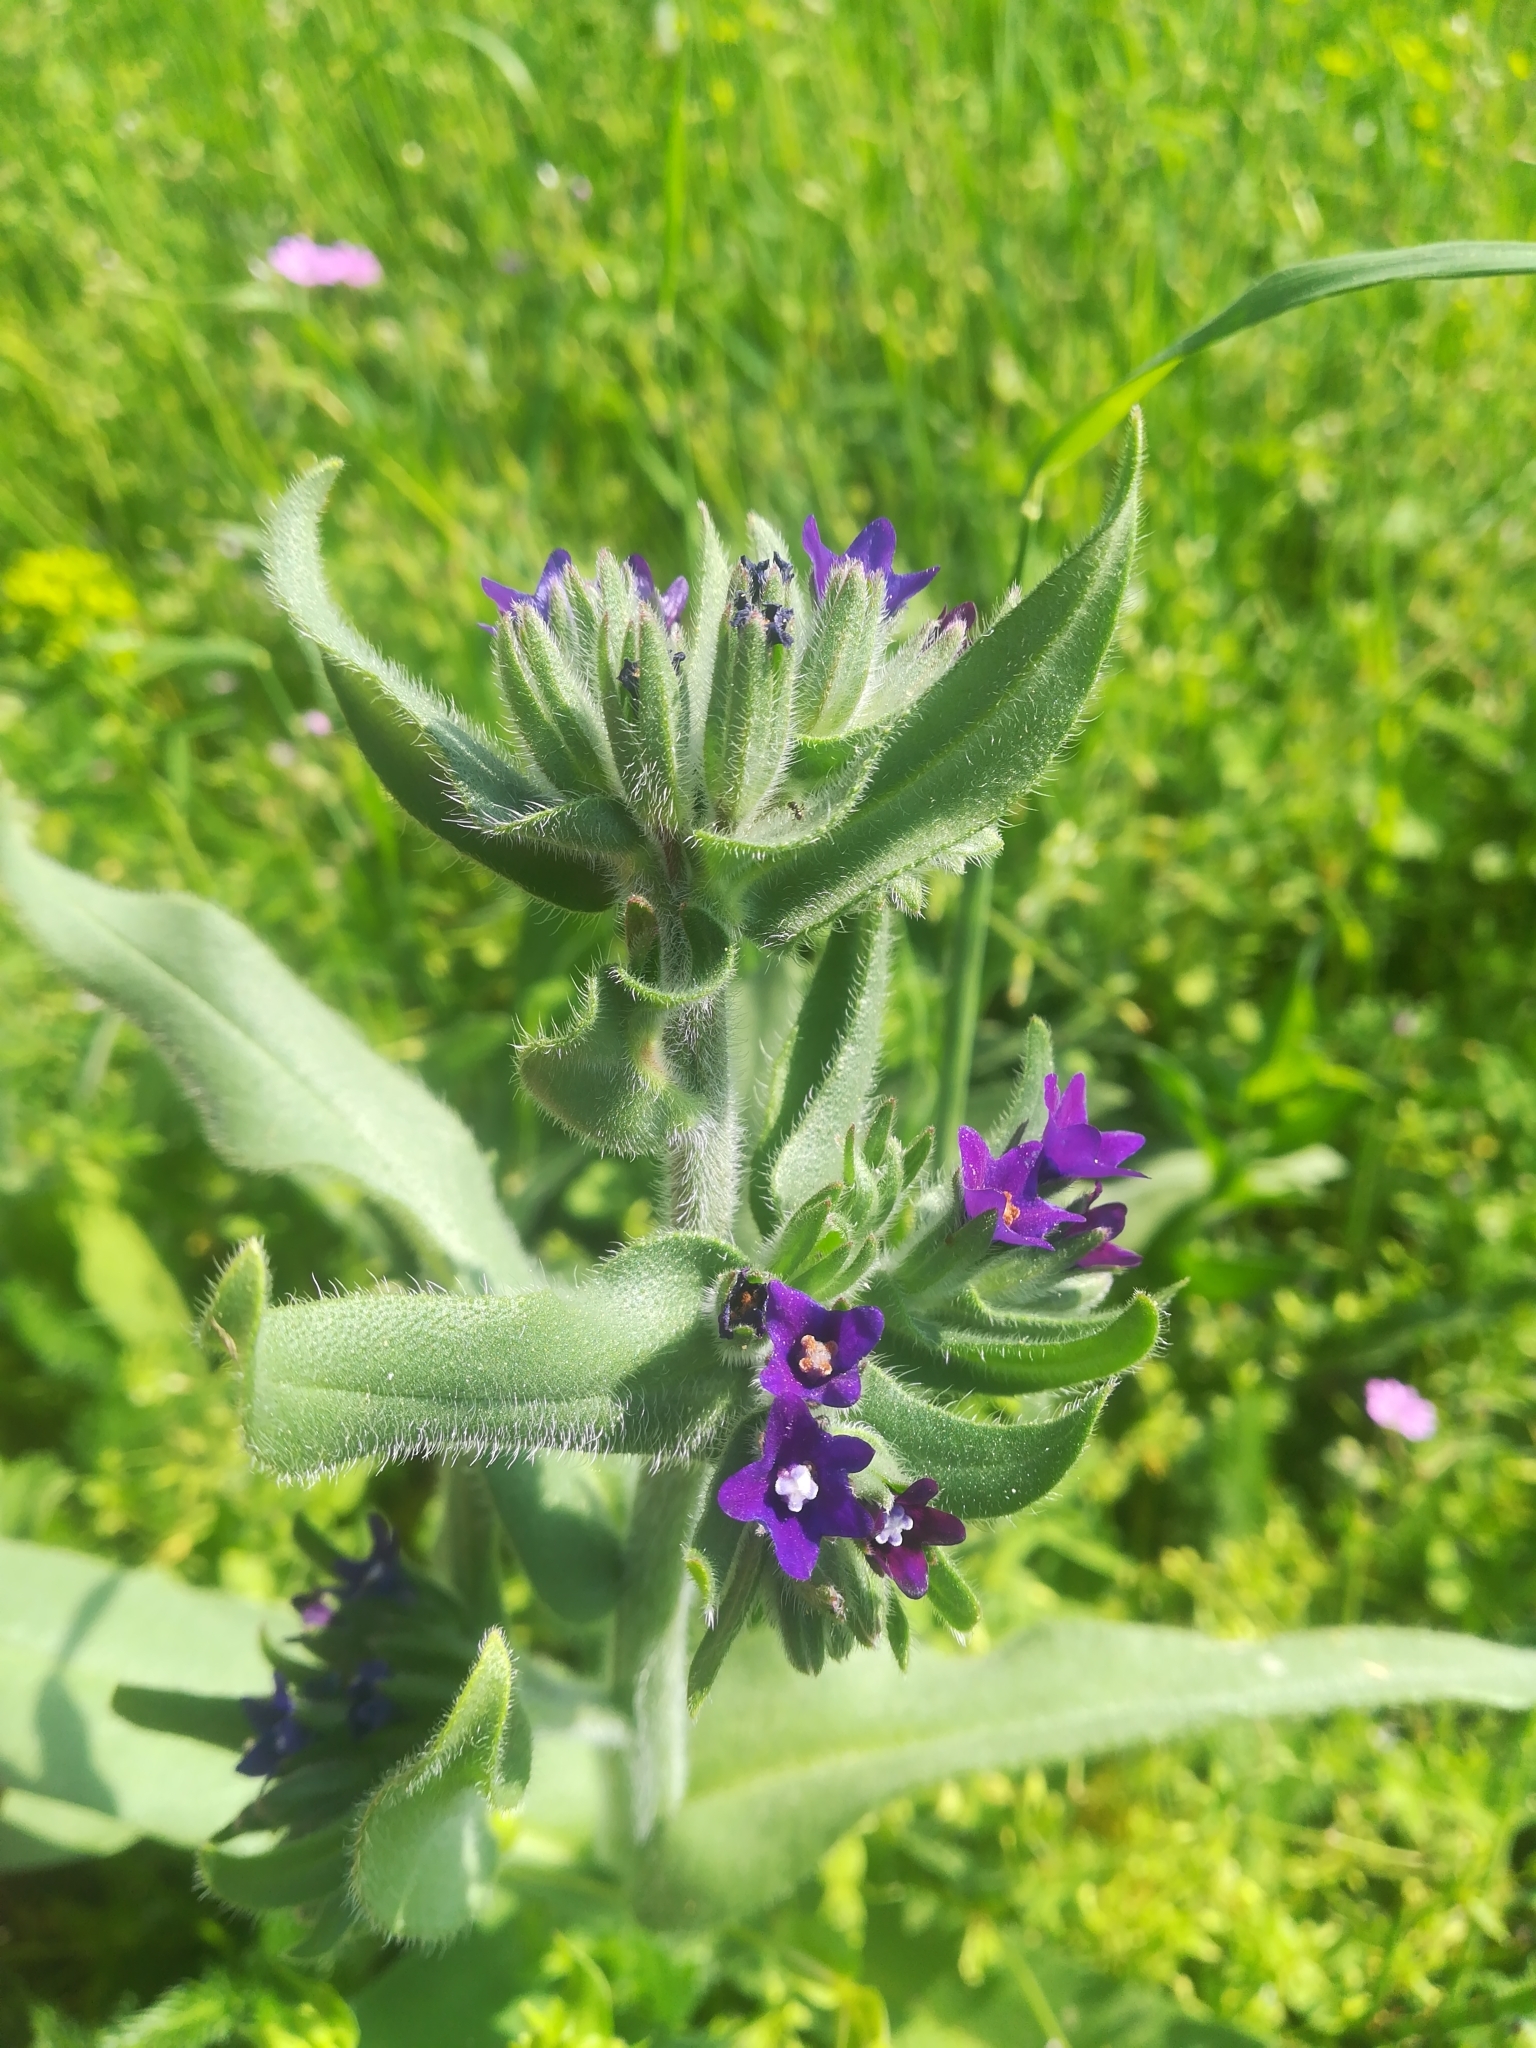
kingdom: Plantae
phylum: Tracheophyta
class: Magnoliopsida
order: Boraginales
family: Boraginaceae
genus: Anchusa
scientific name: Anchusa officinalis
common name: Alkanet
